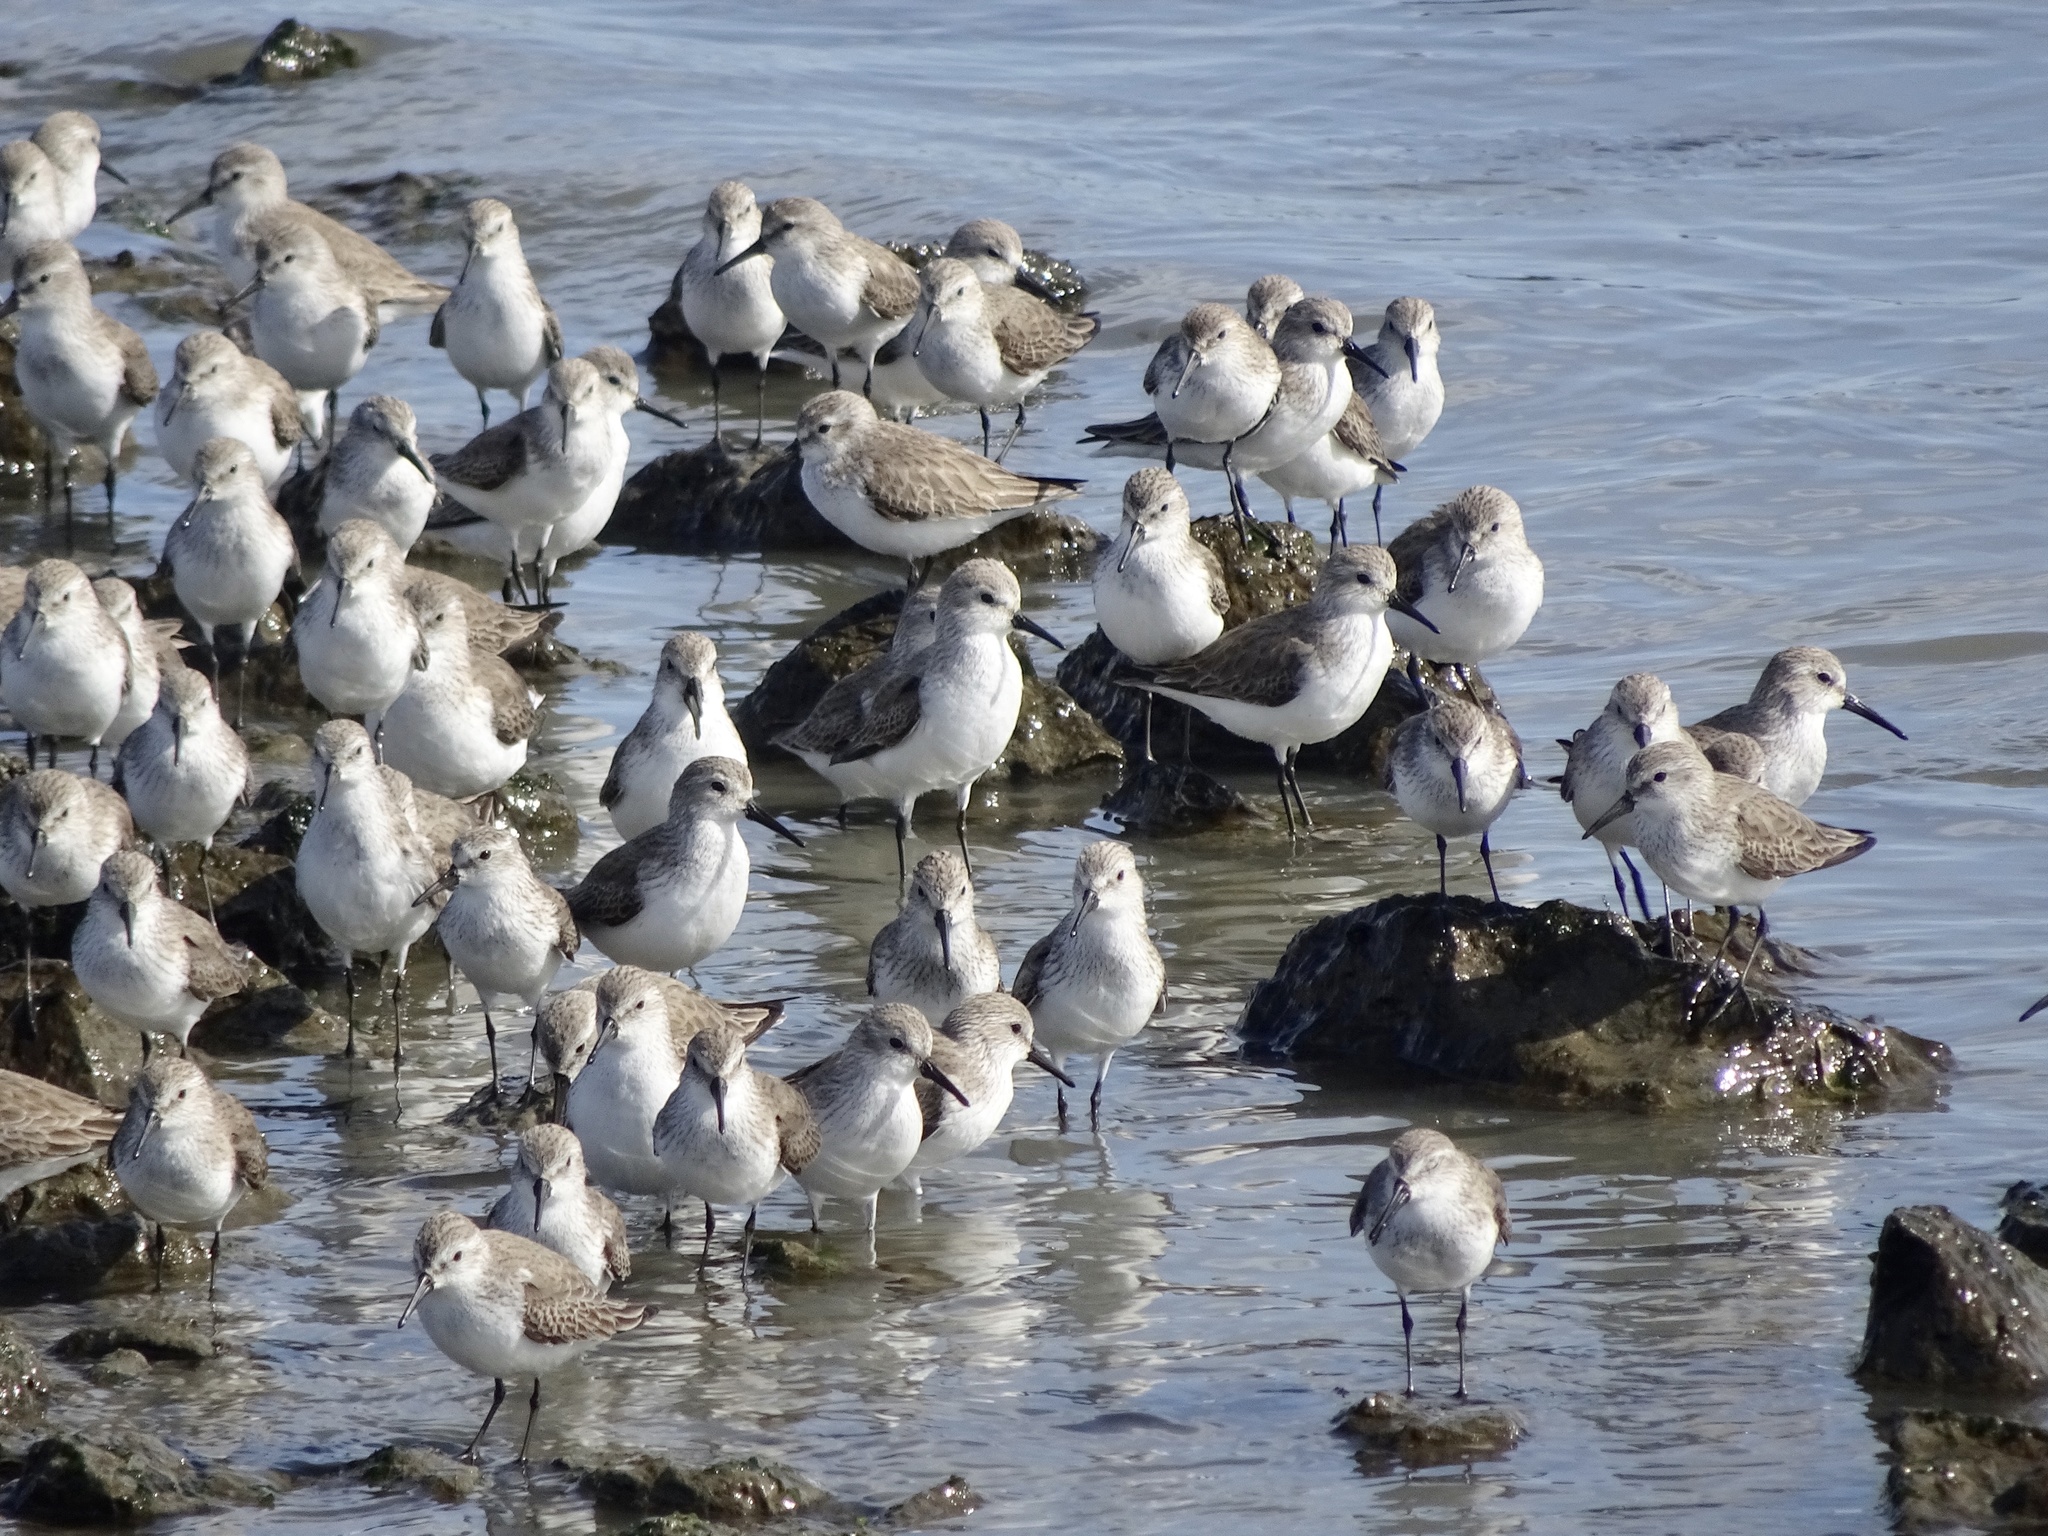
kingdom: Animalia
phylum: Chordata
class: Aves
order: Charadriiformes
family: Scolopacidae
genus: Calidris
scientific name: Calidris mauri
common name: Western sandpiper
